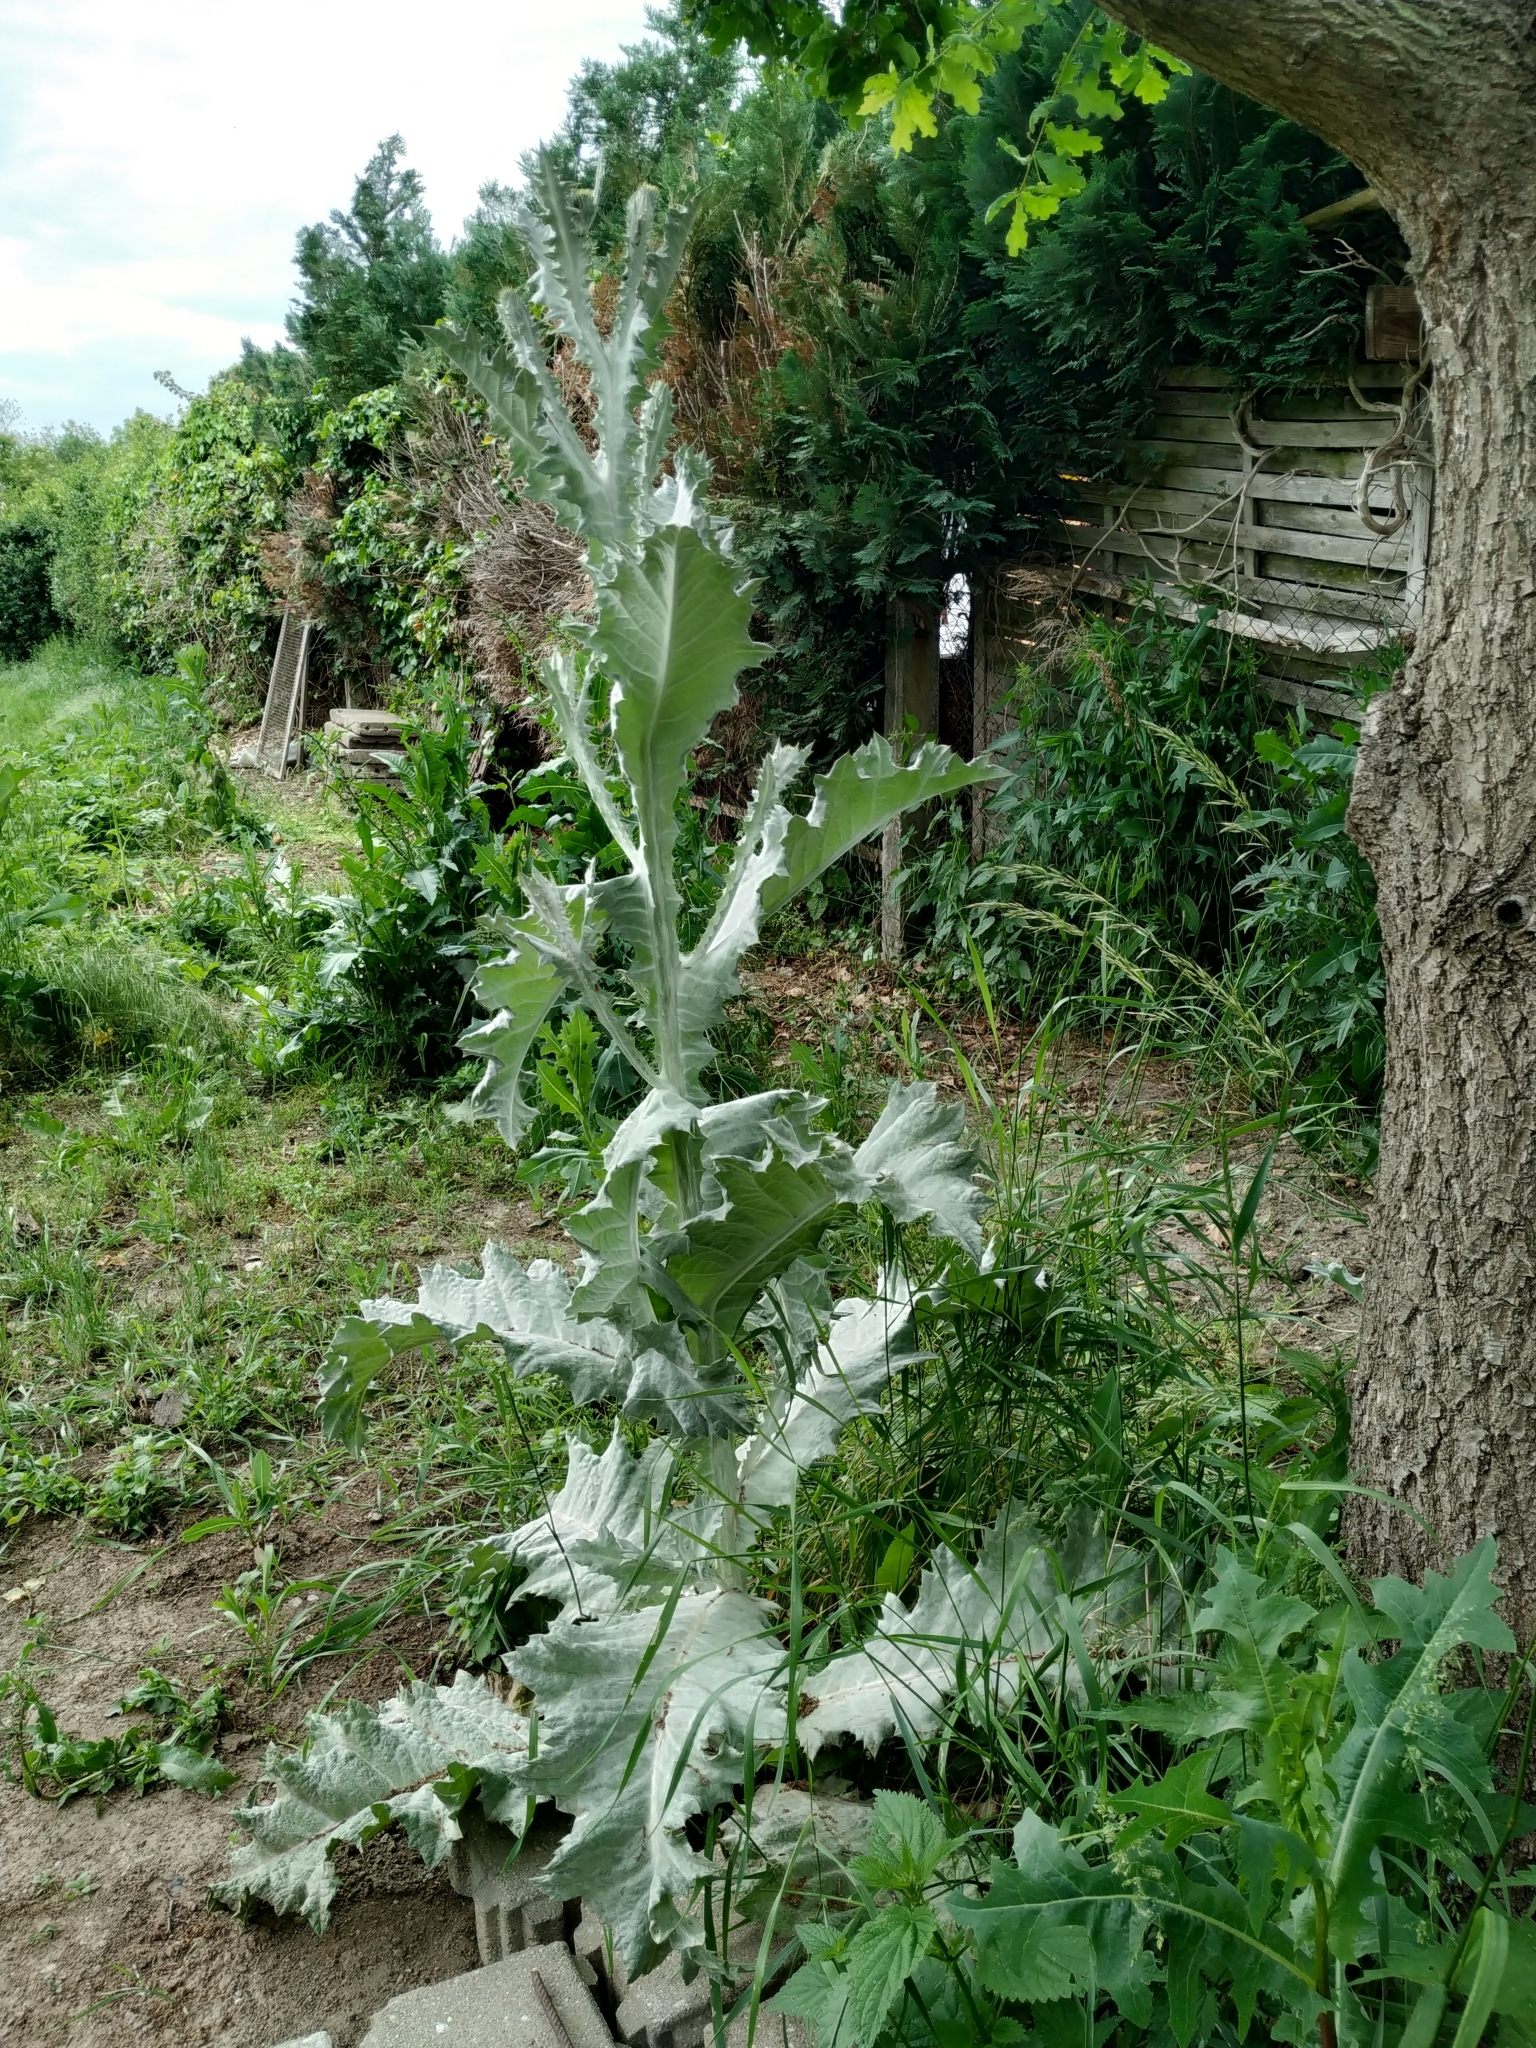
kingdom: Plantae
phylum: Tracheophyta
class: Magnoliopsida
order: Asterales
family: Asteraceae
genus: Onopordum
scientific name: Onopordum acanthium
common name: Scotch thistle
